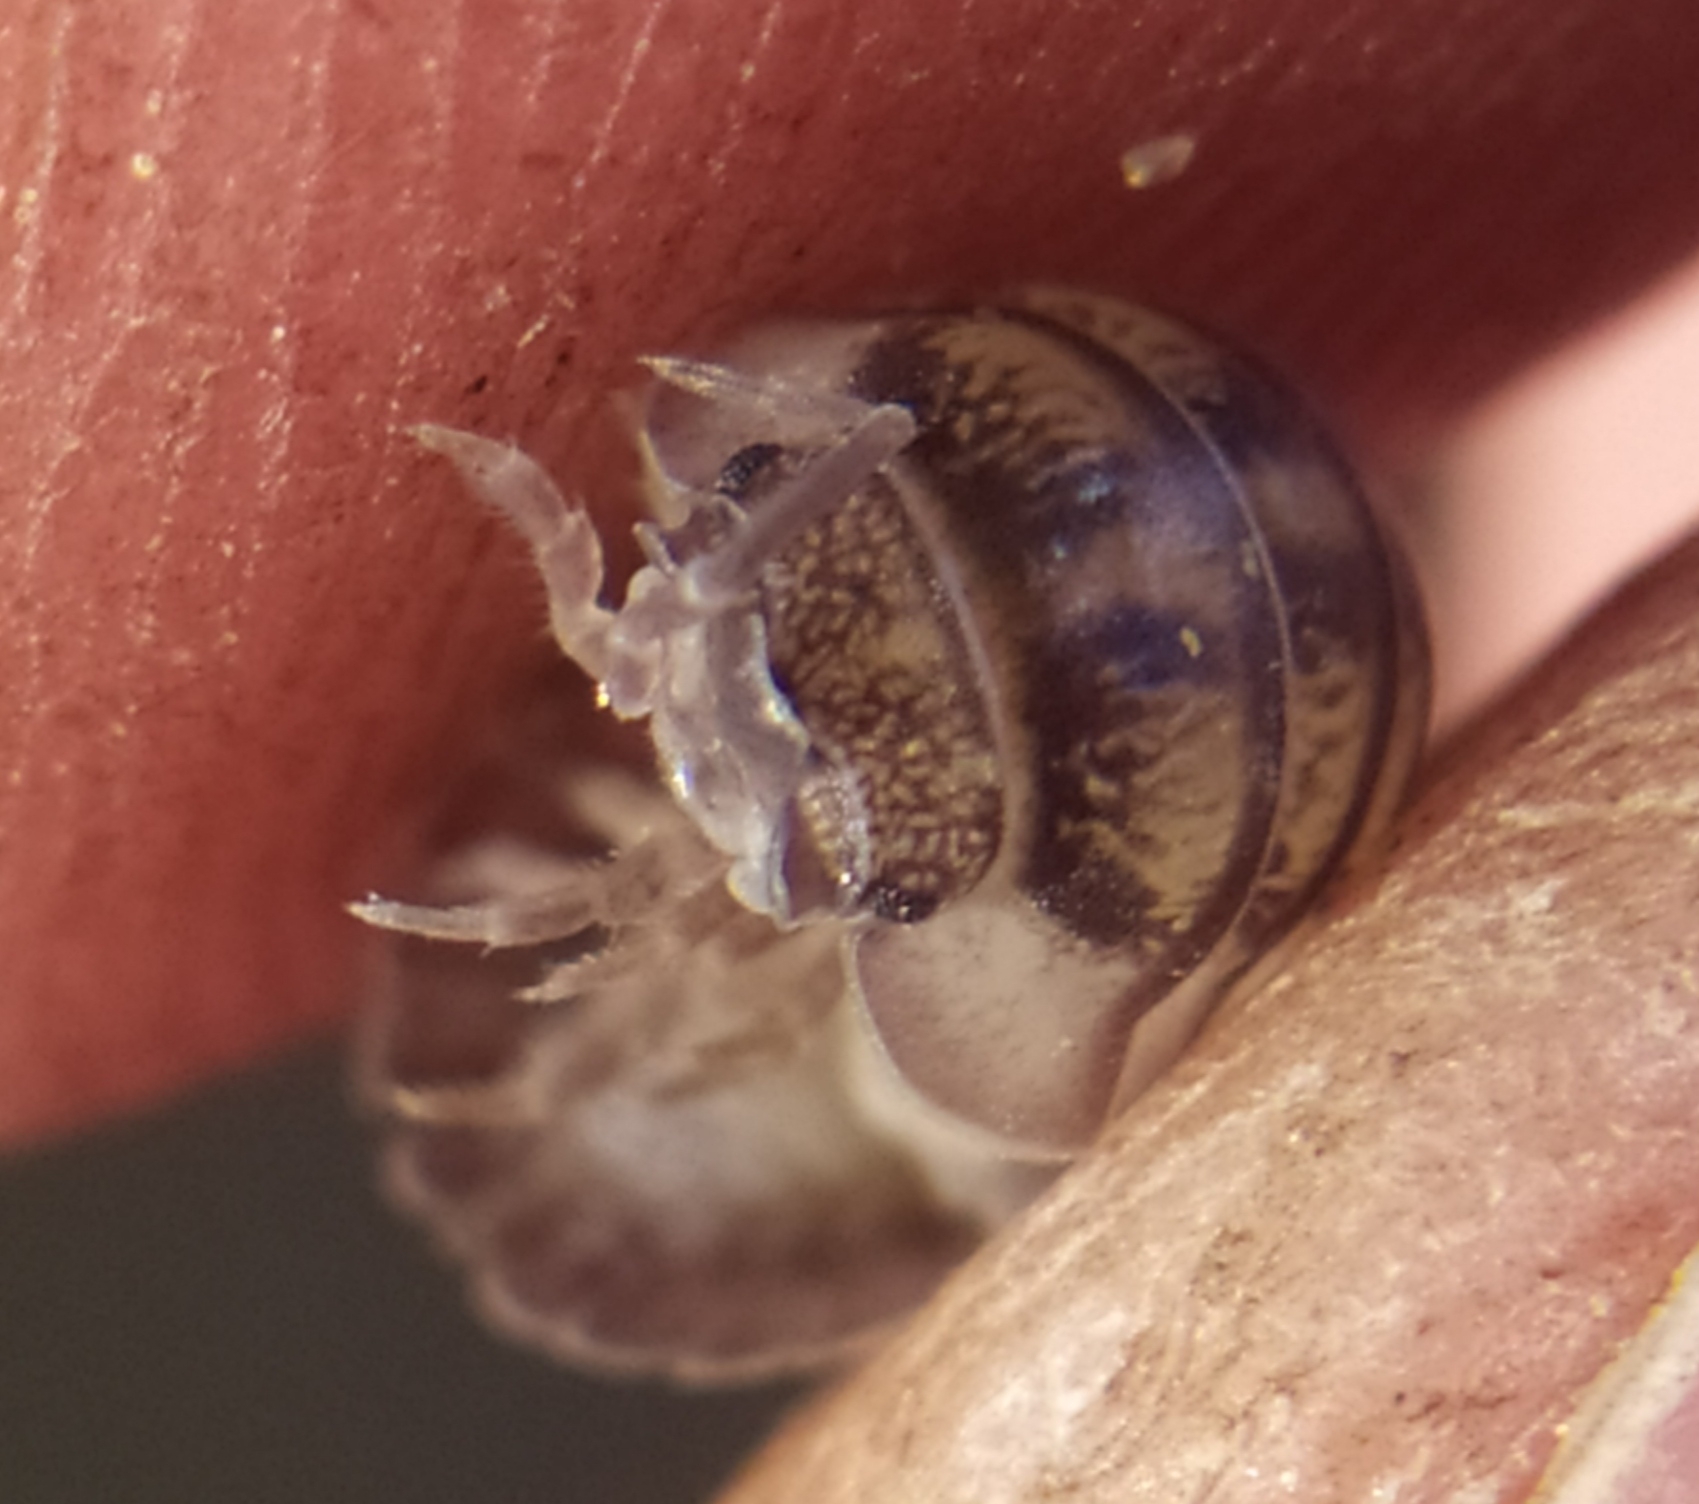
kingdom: Animalia
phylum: Arthropoda
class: Malacostraca
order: Isopoda
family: Armadillidiidae
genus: Armadillidium
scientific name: Armadillidium nasatum
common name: Isopod
